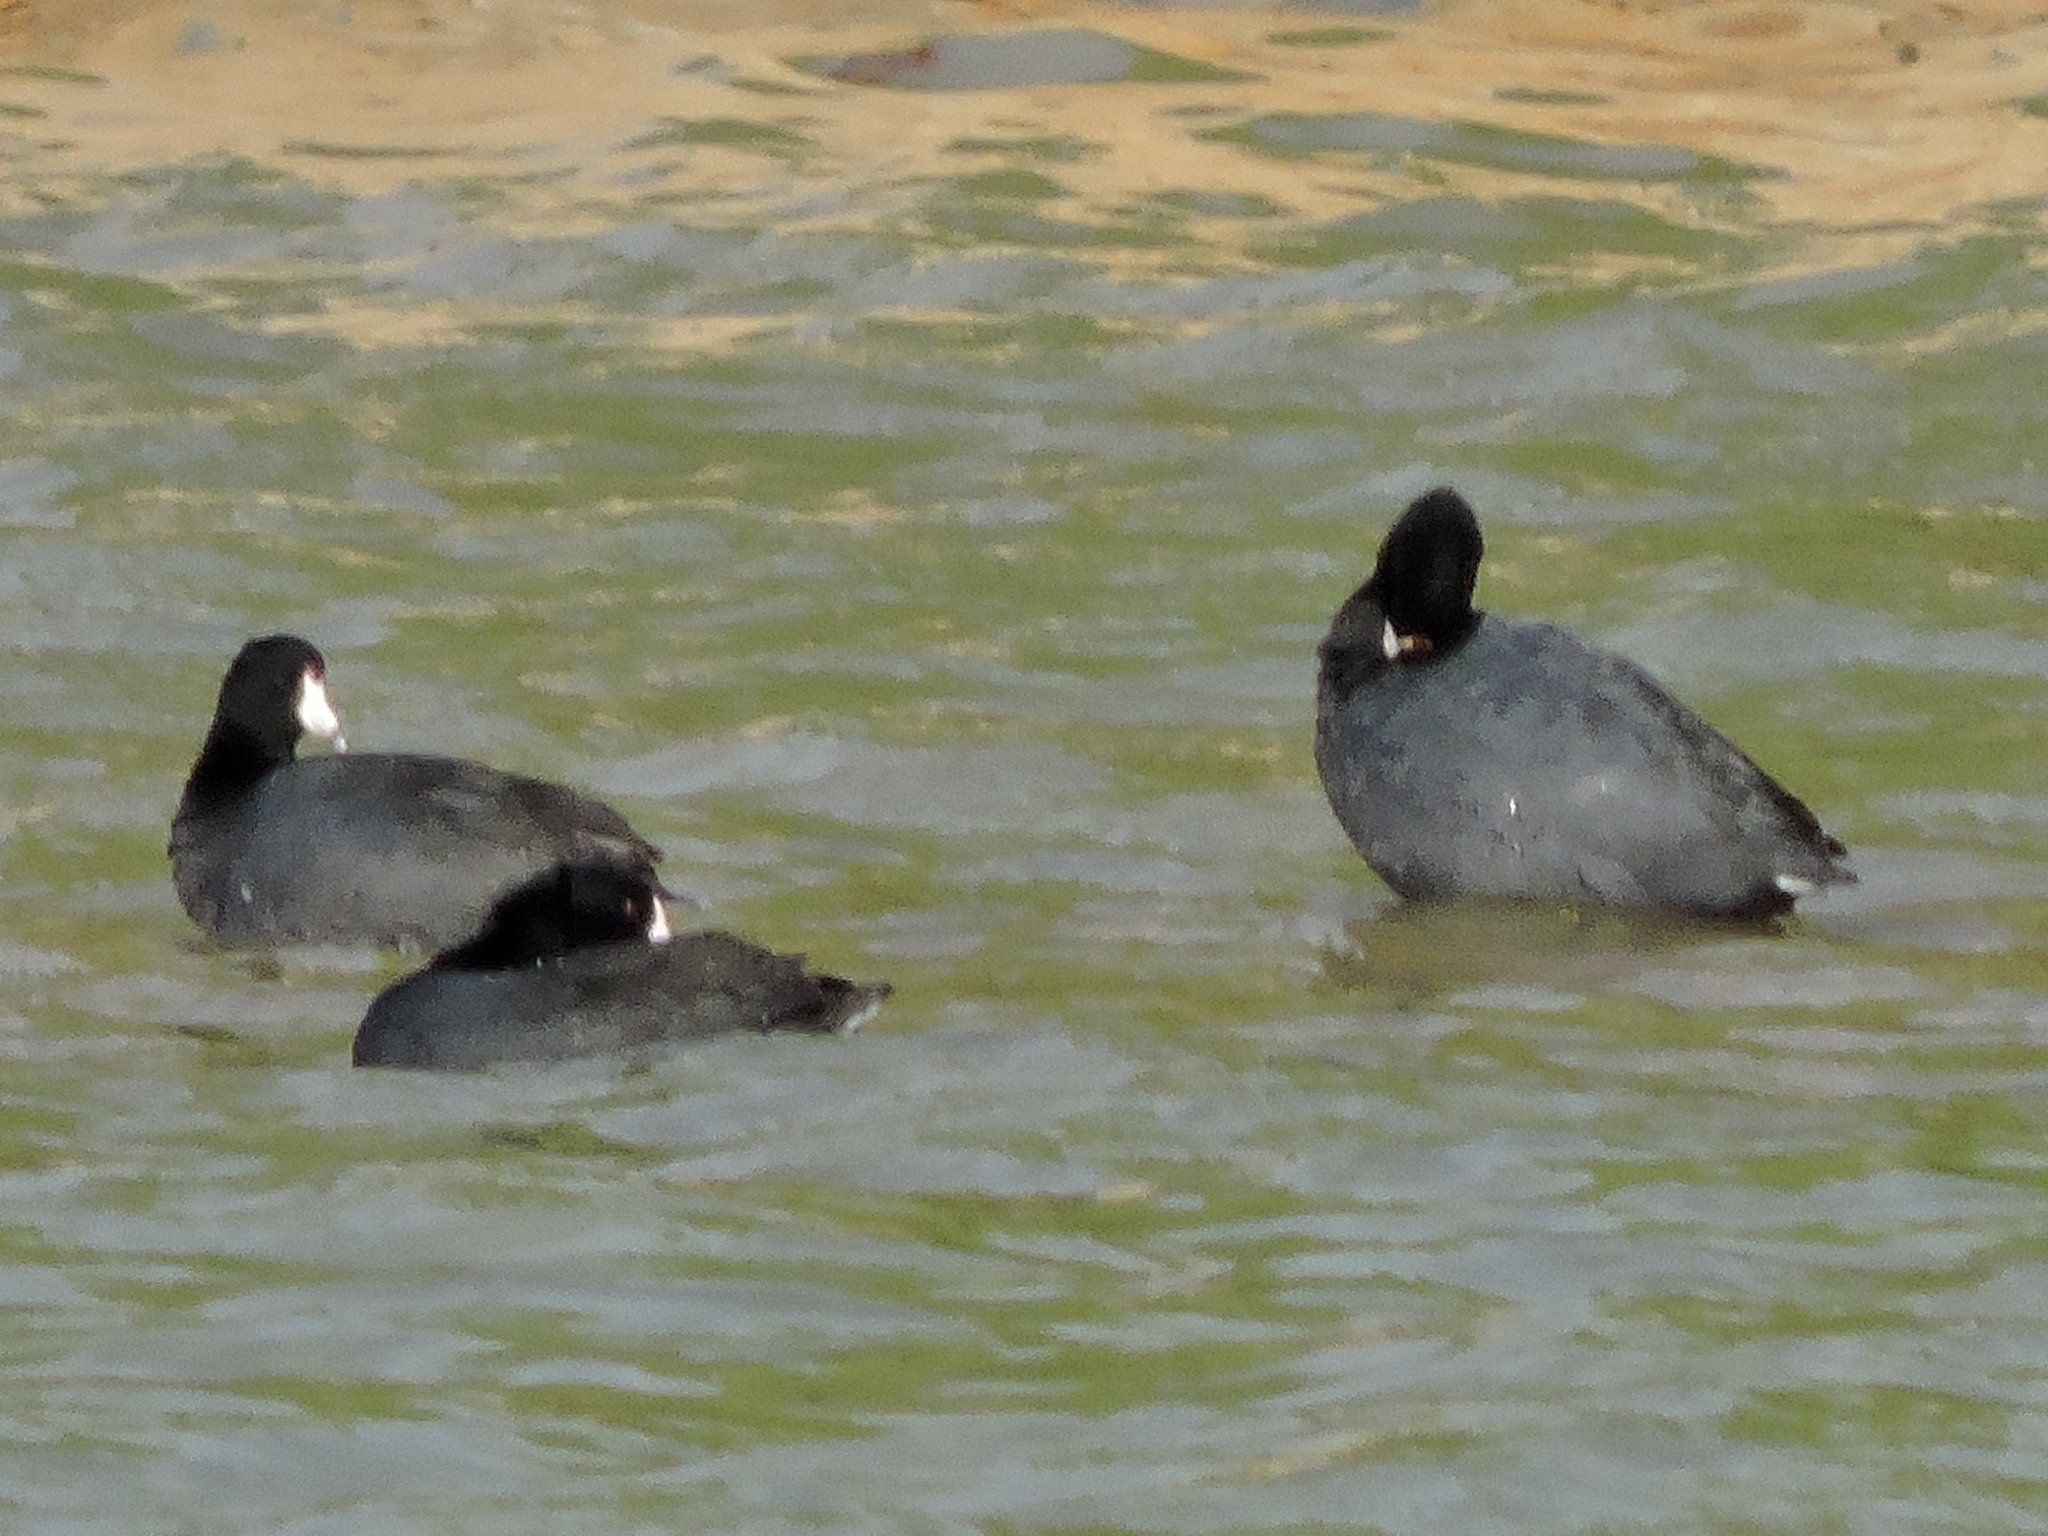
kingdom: Animalia
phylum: Chordata
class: Aves
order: Gruiformes
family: Rallidae
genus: Fulica
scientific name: Fulica americana
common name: American coot
